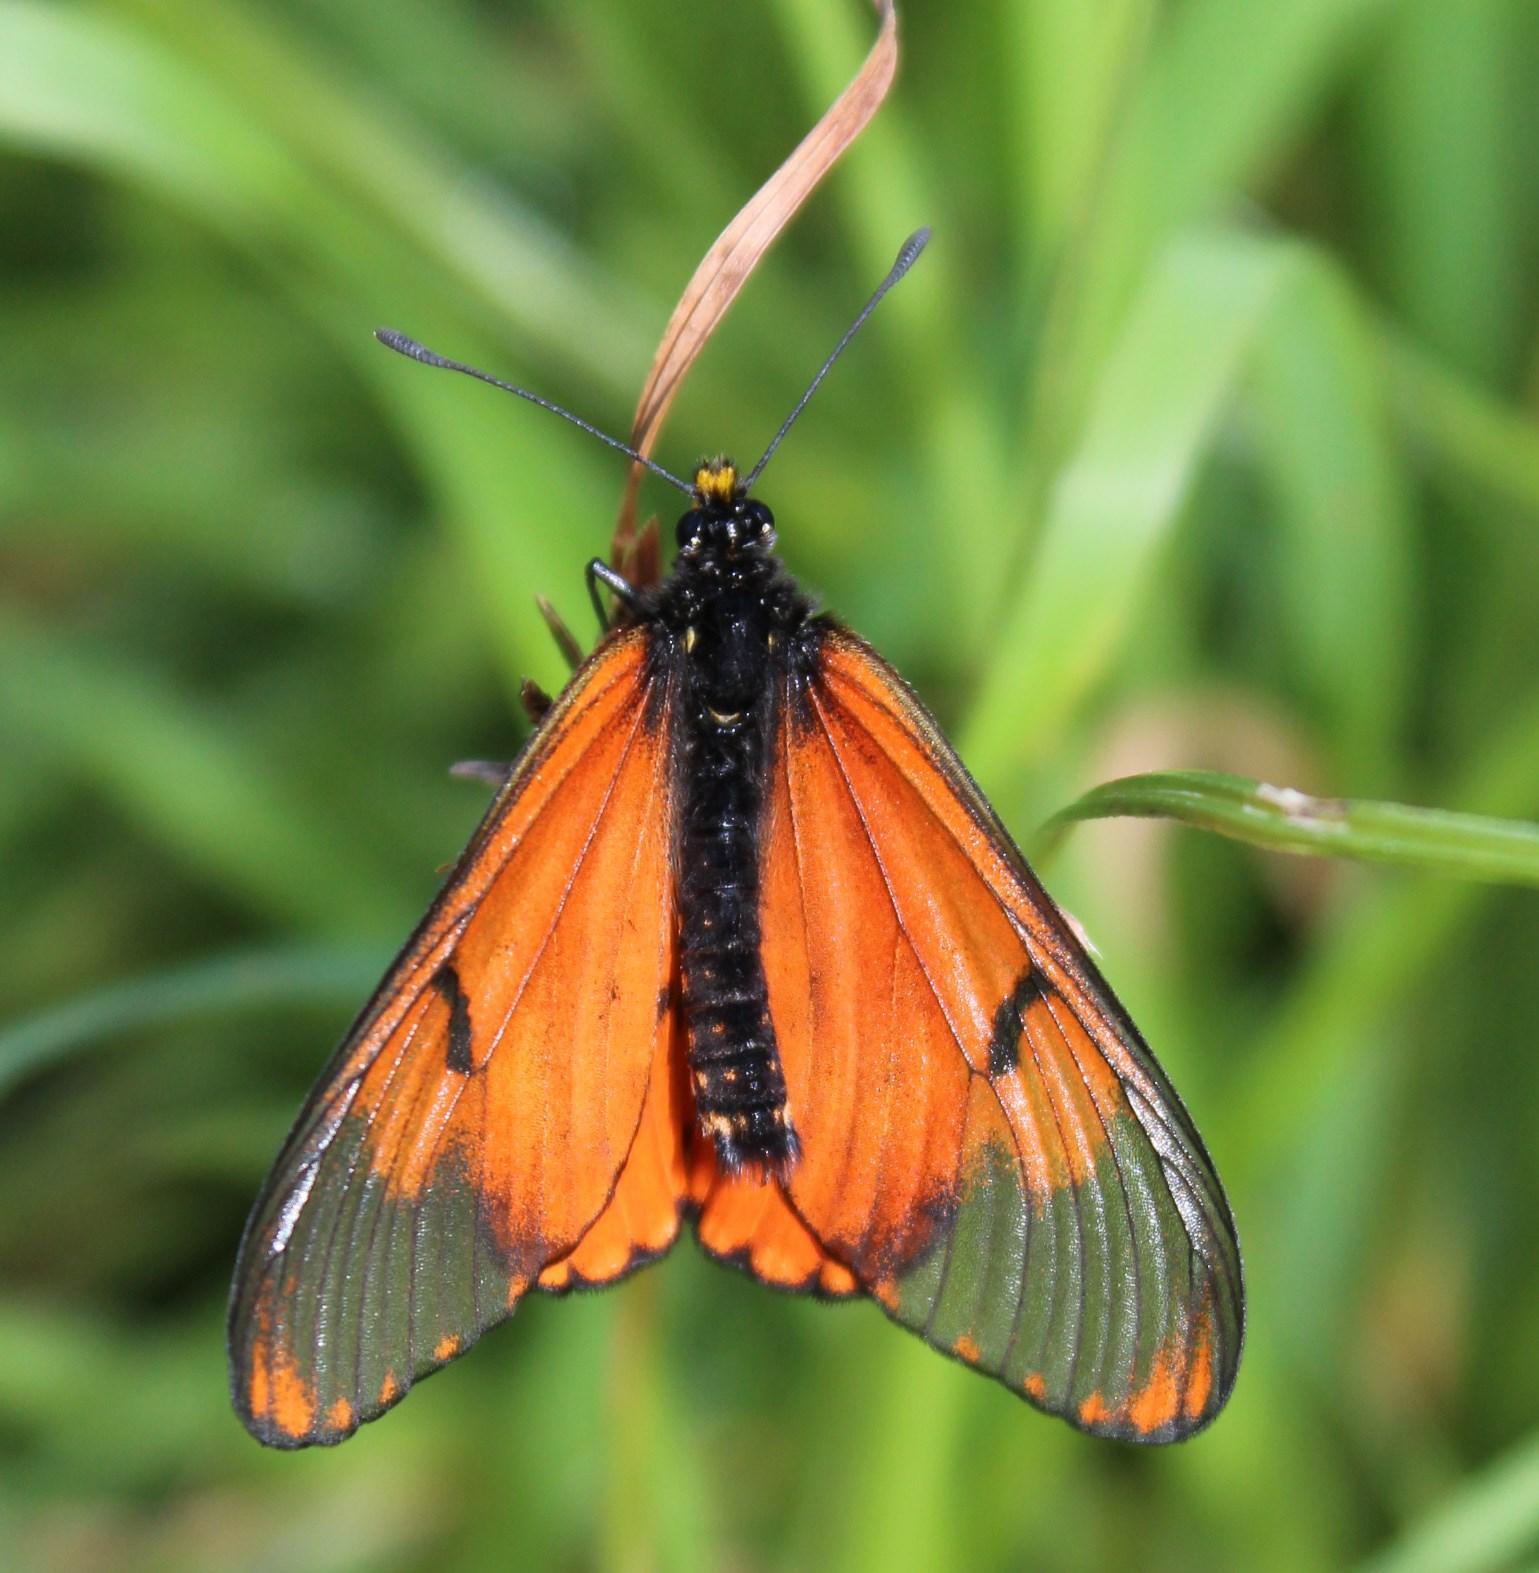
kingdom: Animalia
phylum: Arthropoda
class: Insecta
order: Lepidoptera
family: Nymphalidae
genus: Acraea
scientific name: Acraea horta
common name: Garden acraea
